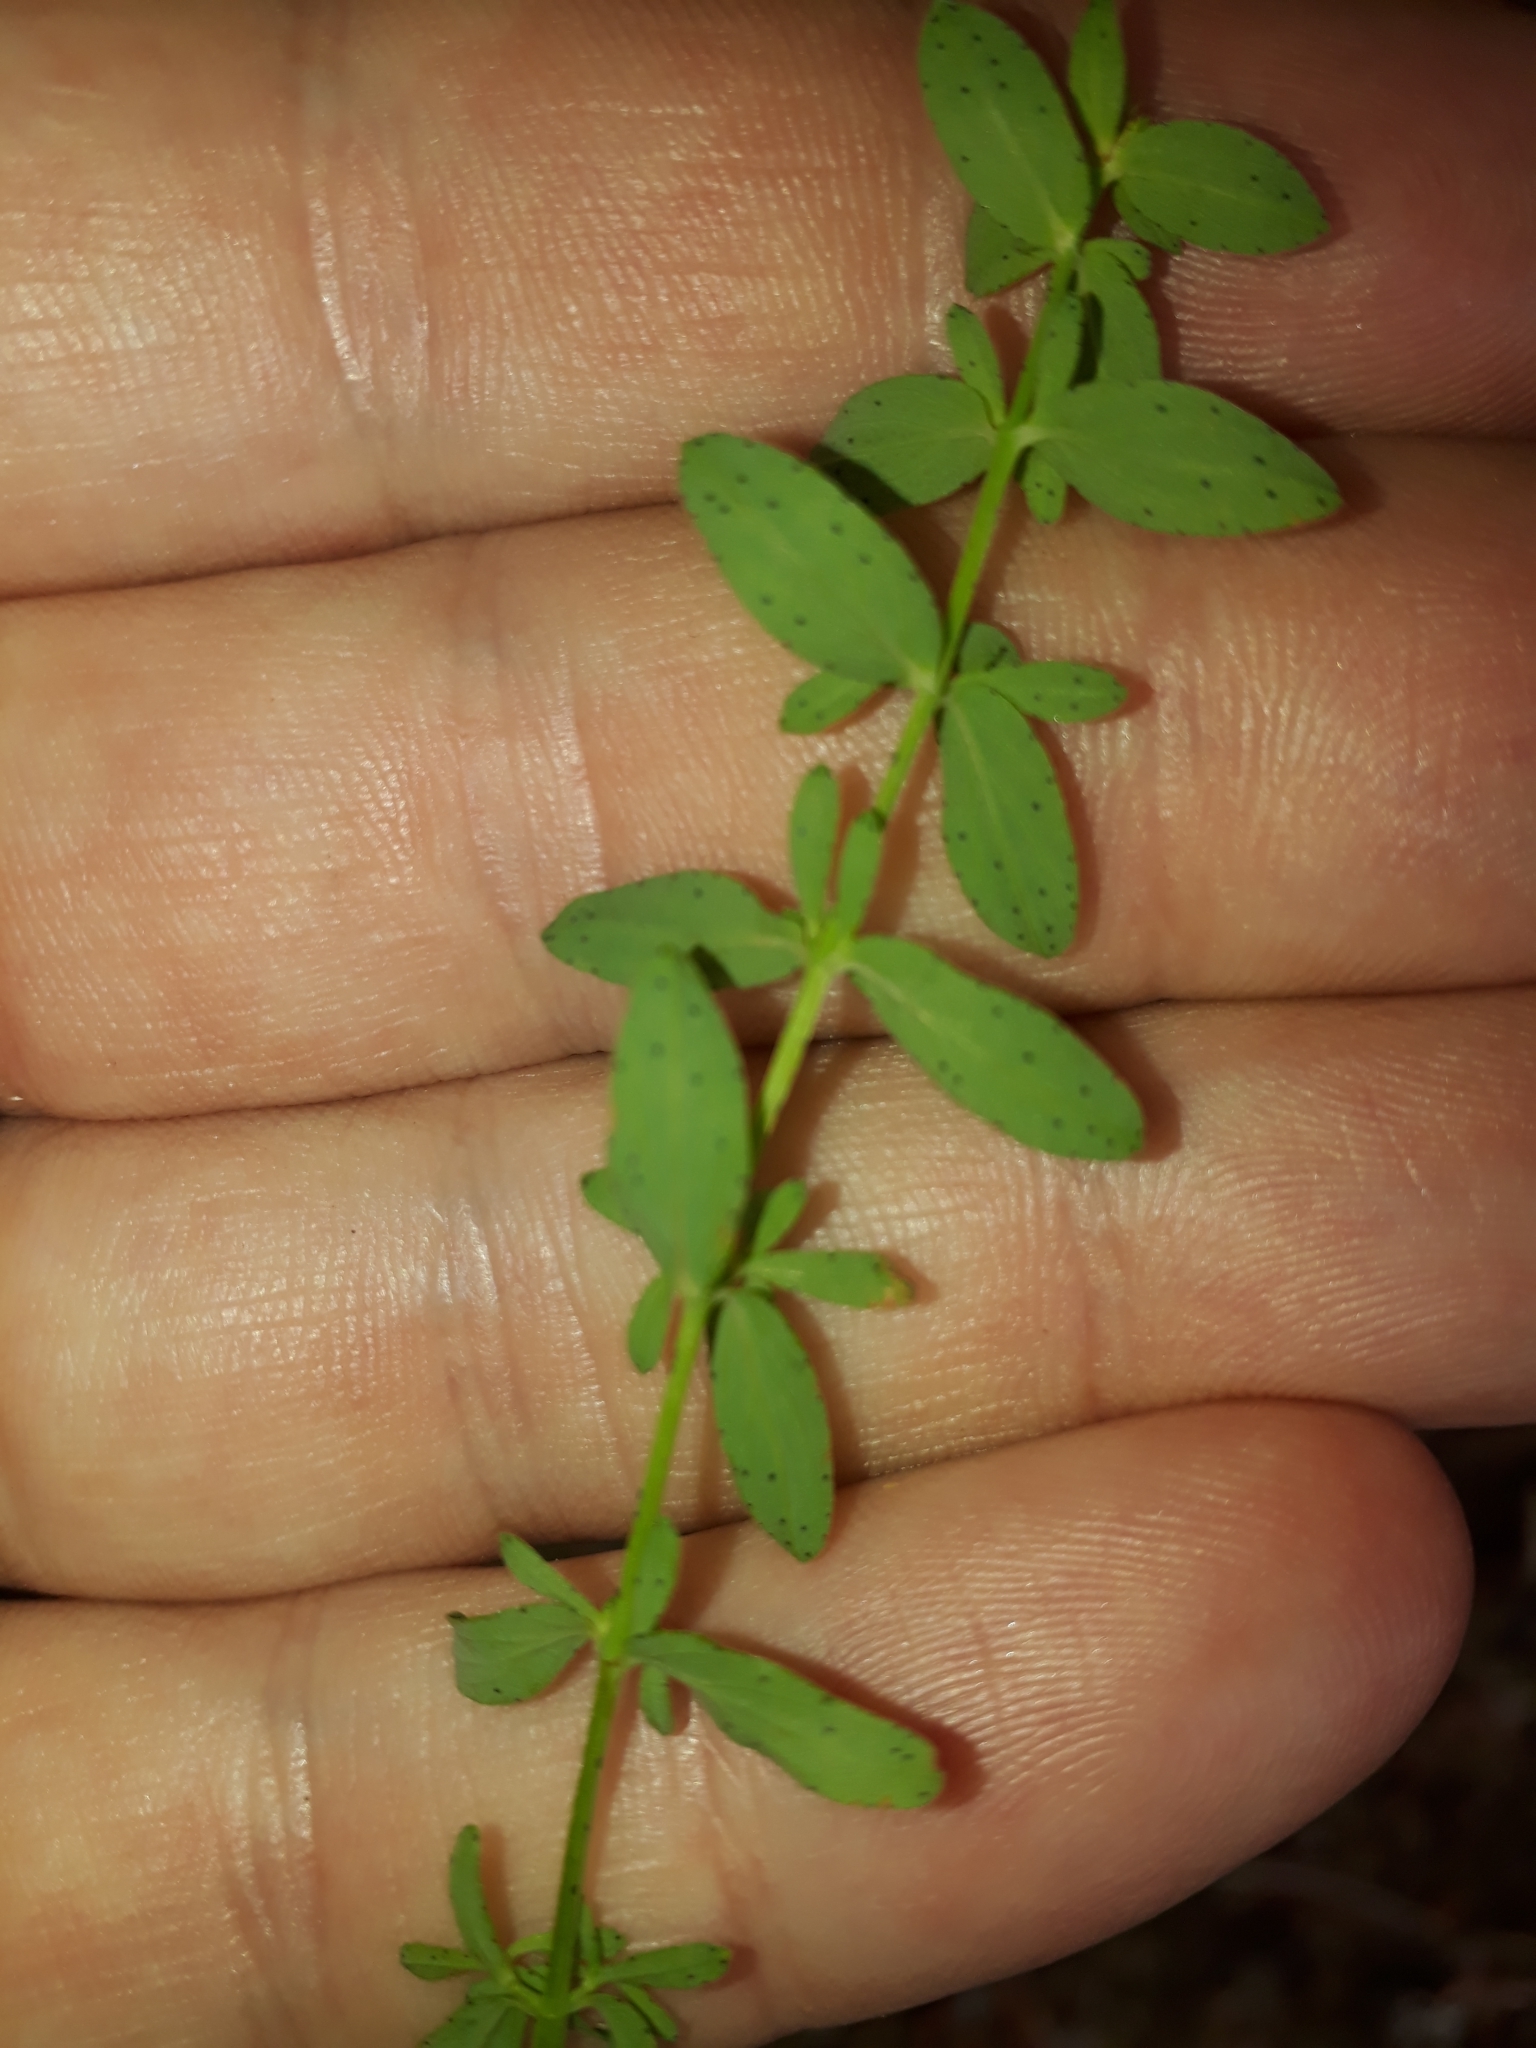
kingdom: Plantae
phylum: Tracheophyta
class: Magnoliopsida
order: Malpighiales
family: Hypericaceae
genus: Hypericum
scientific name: Hypericum perforatum
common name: Common st. johnswort
